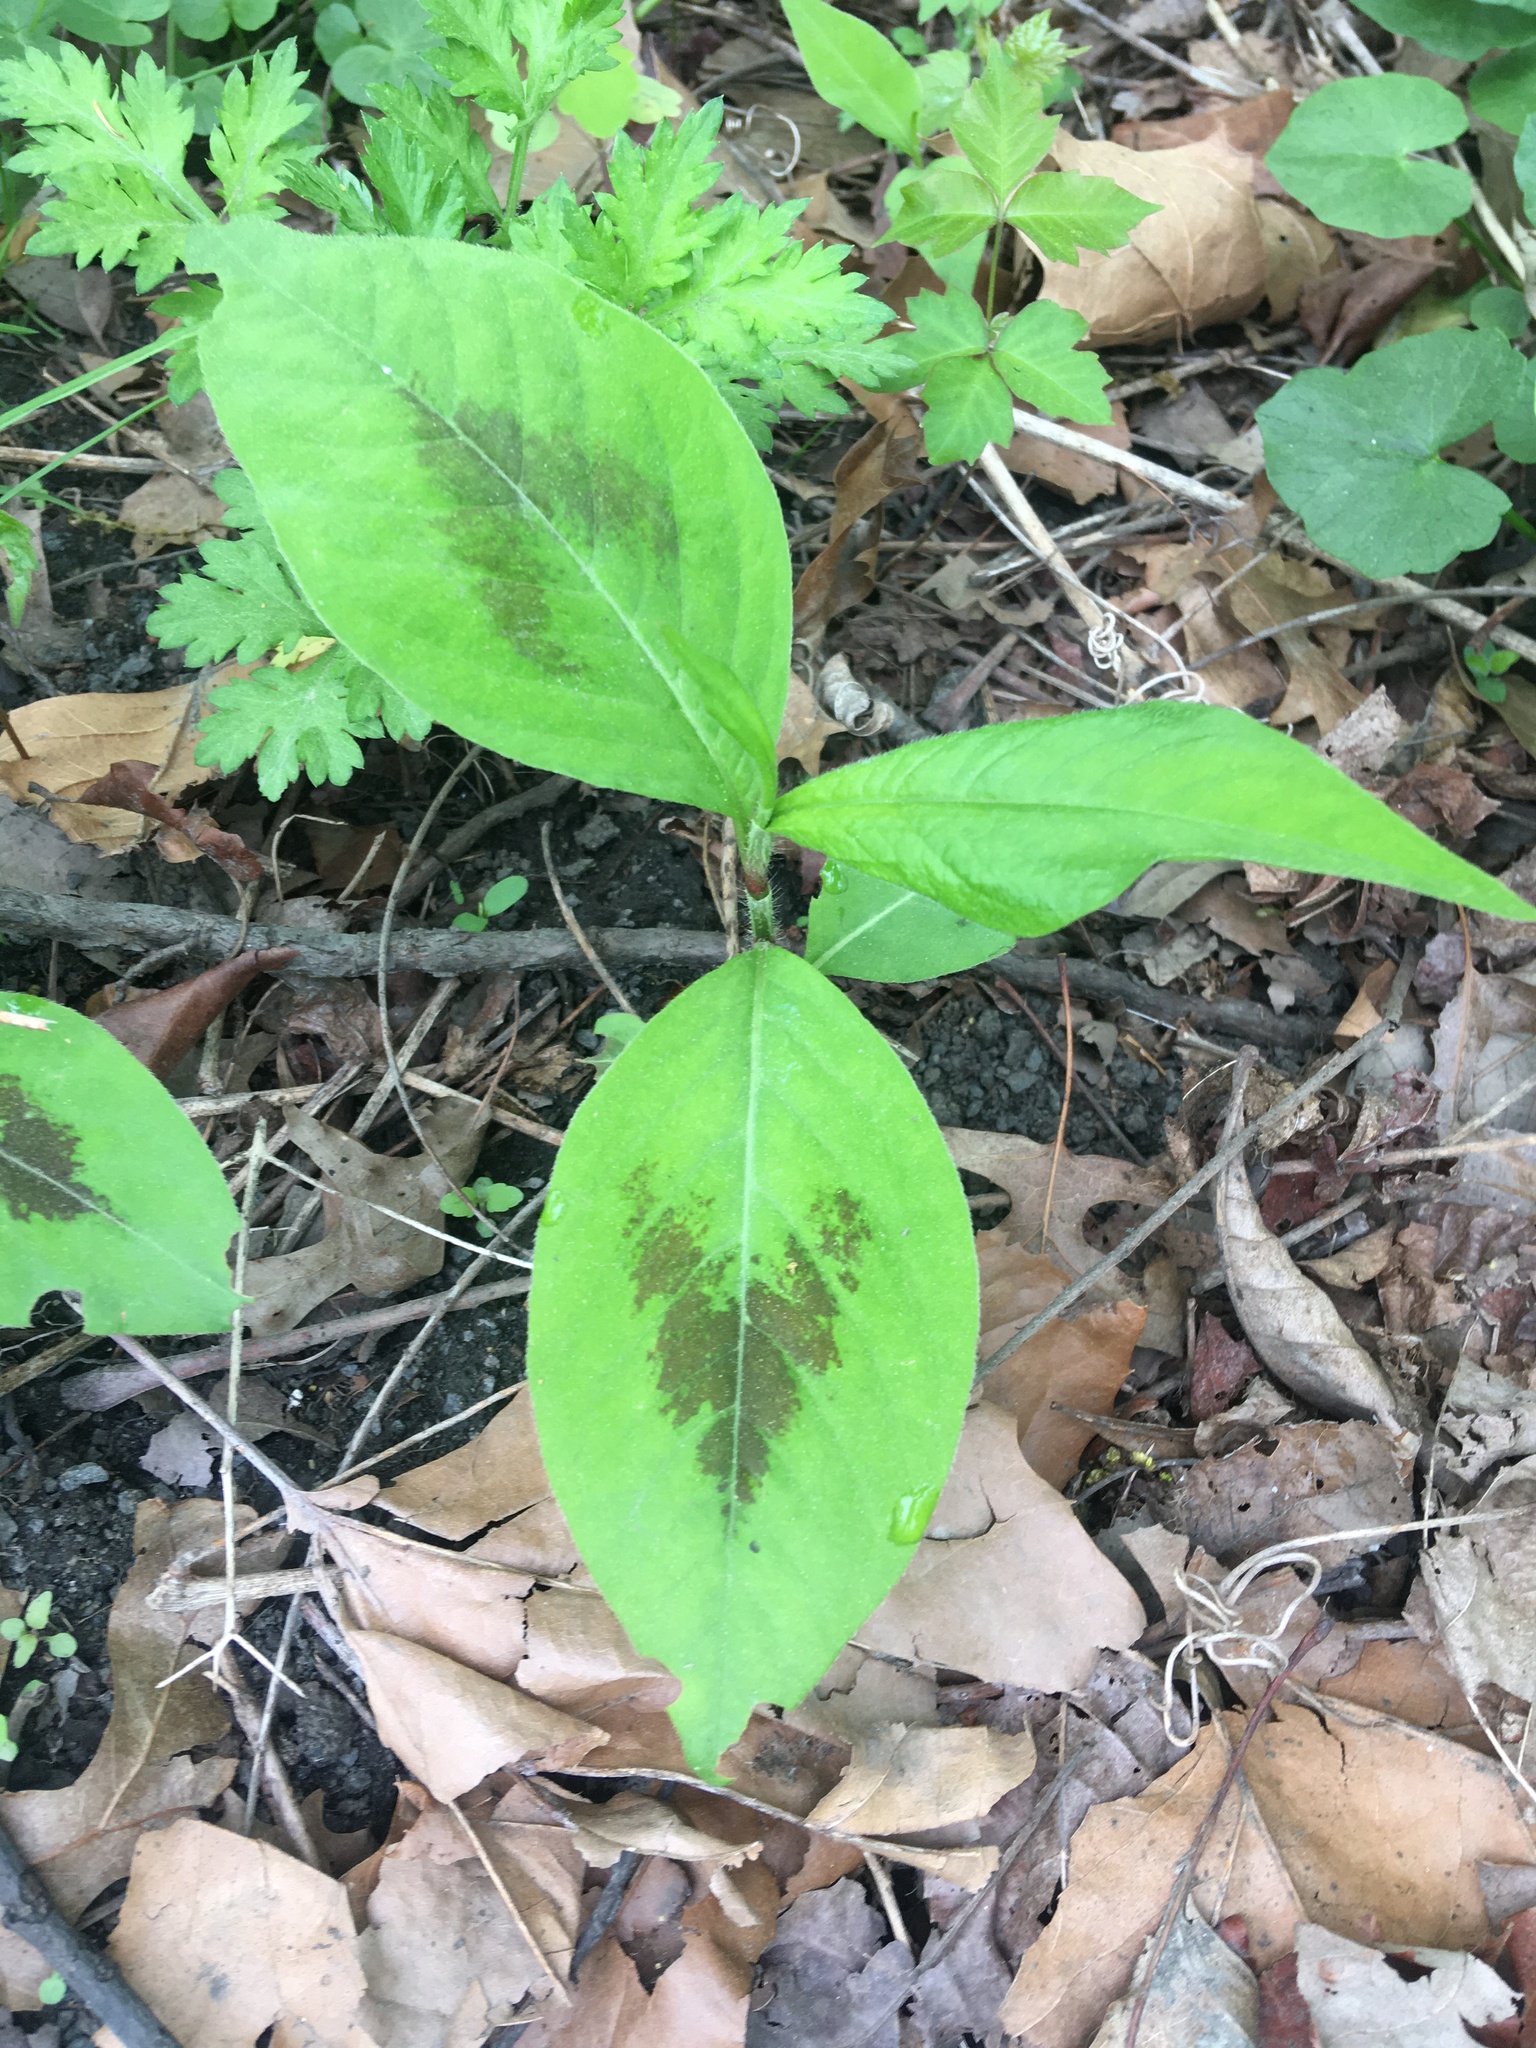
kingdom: Plantae
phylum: Tracheophyta
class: Magnoliopsida
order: Caryophyllales
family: Polygonaceae
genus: Persicaria
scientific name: Persicaria virginiana
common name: Jumpseed
